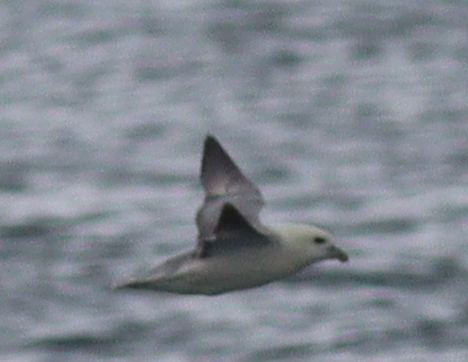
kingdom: Animalia
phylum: Chordata
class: Aves
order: Procellariiformes
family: Procellariidae
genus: Fulmarus
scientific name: Fulmarus glacialis
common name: Northern fulmar
